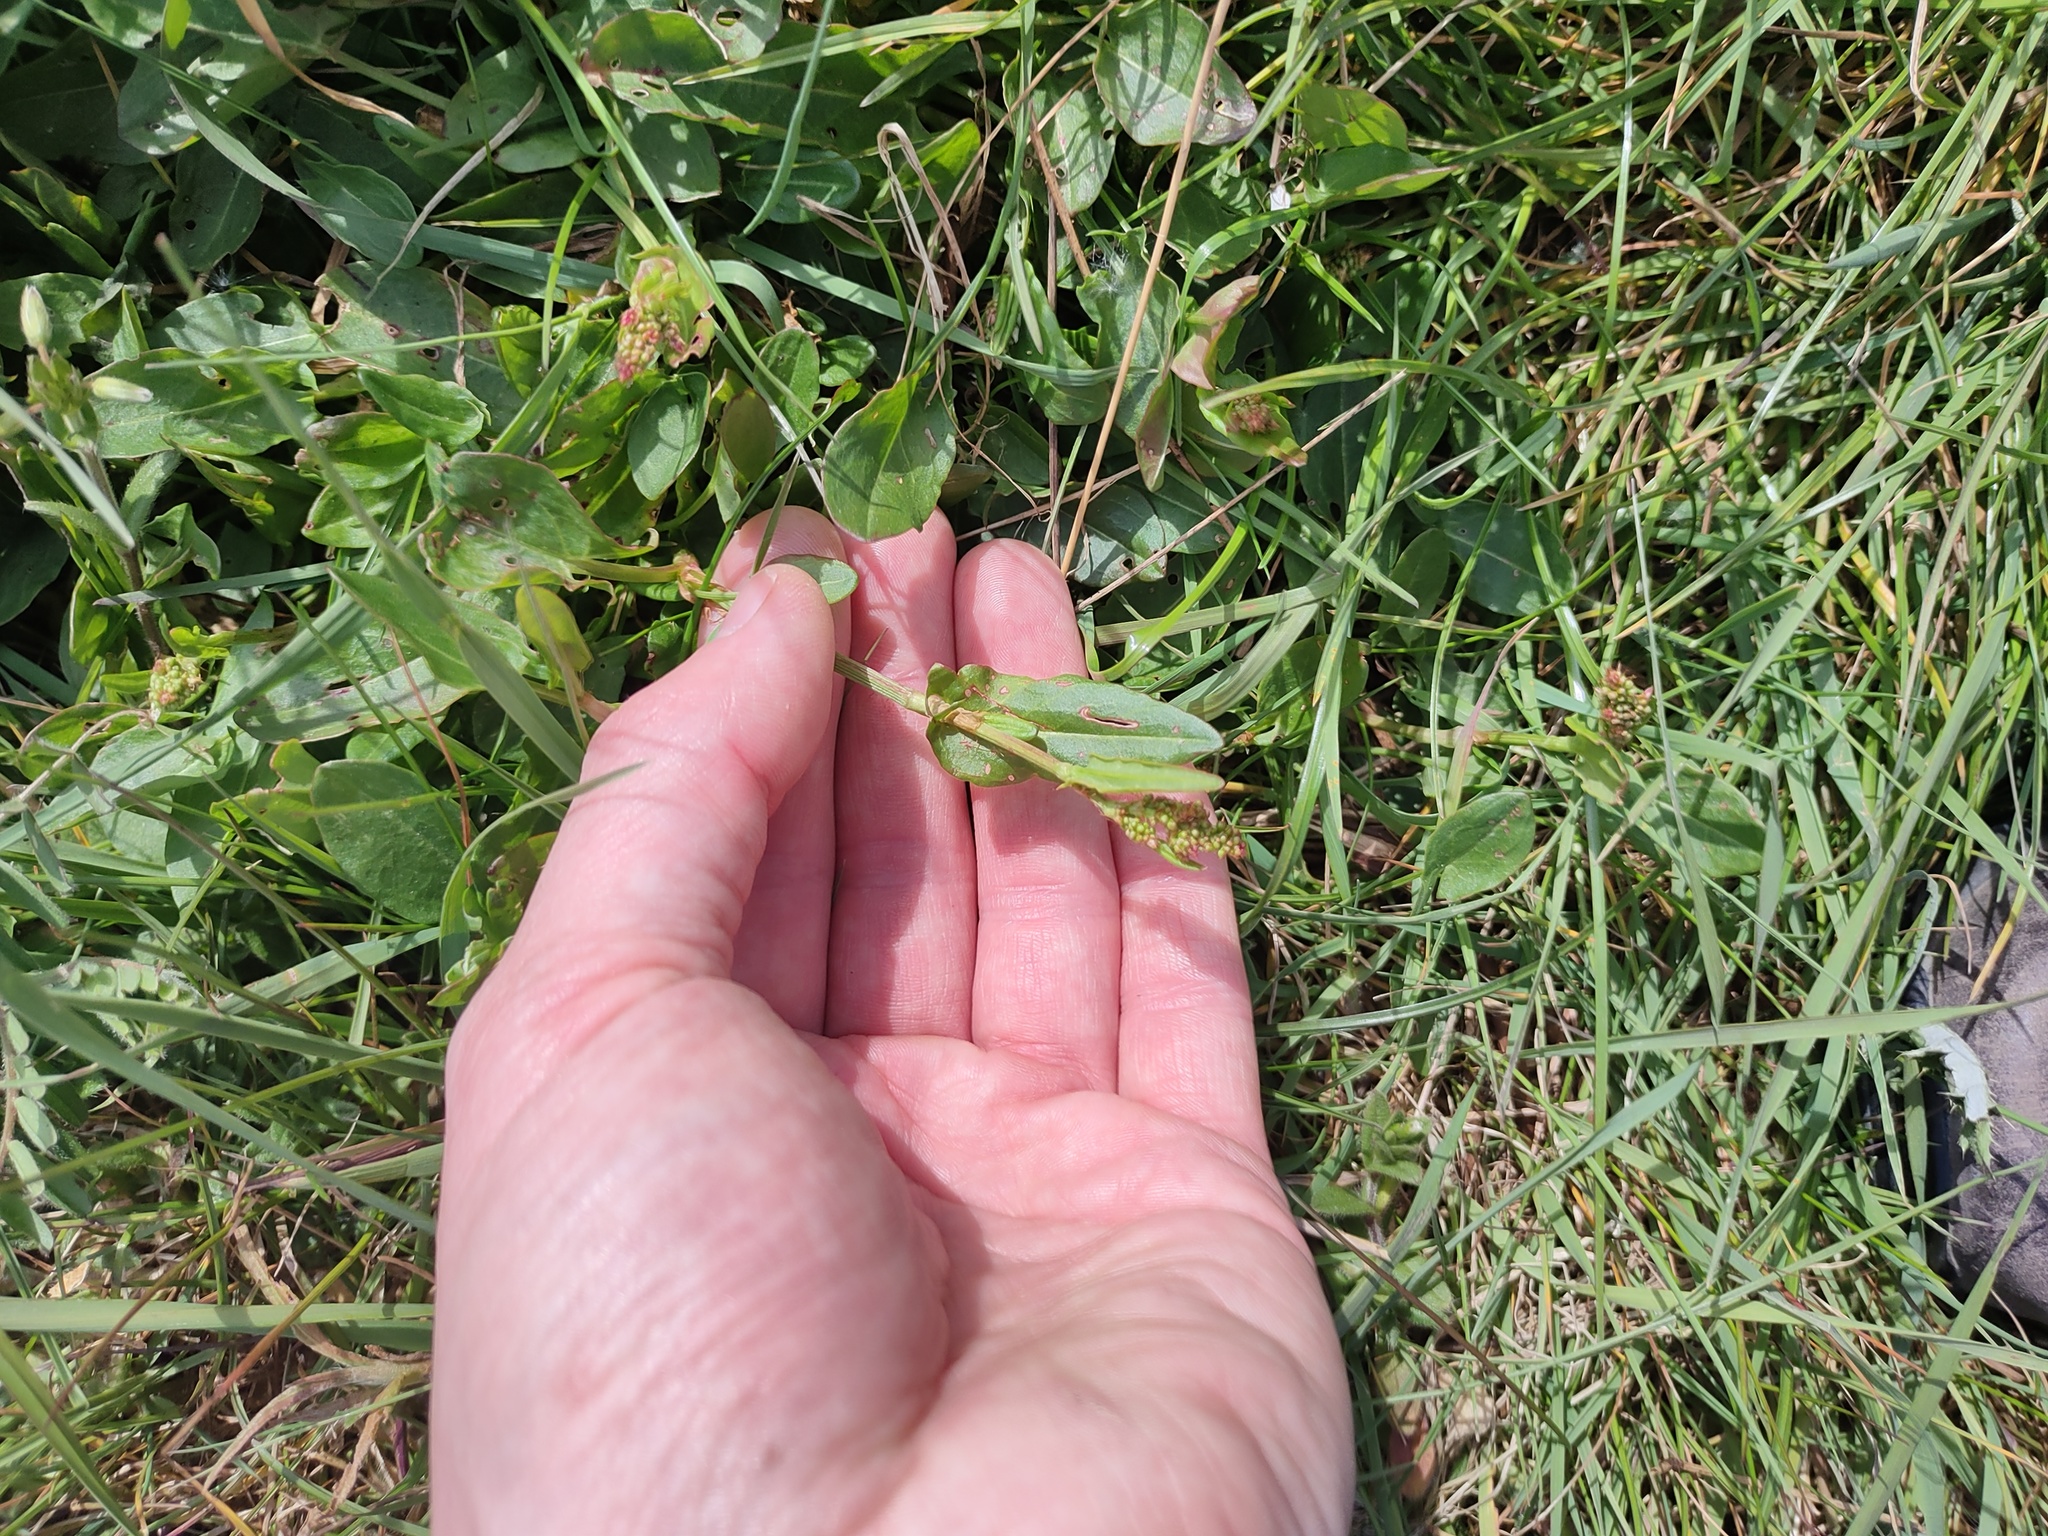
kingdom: Plantae
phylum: Tracheophyta
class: Magnoliopsida
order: Caryophyllales
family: Polygonaceae
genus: Rumex
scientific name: Rumex acetosa
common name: Garden sorrel
